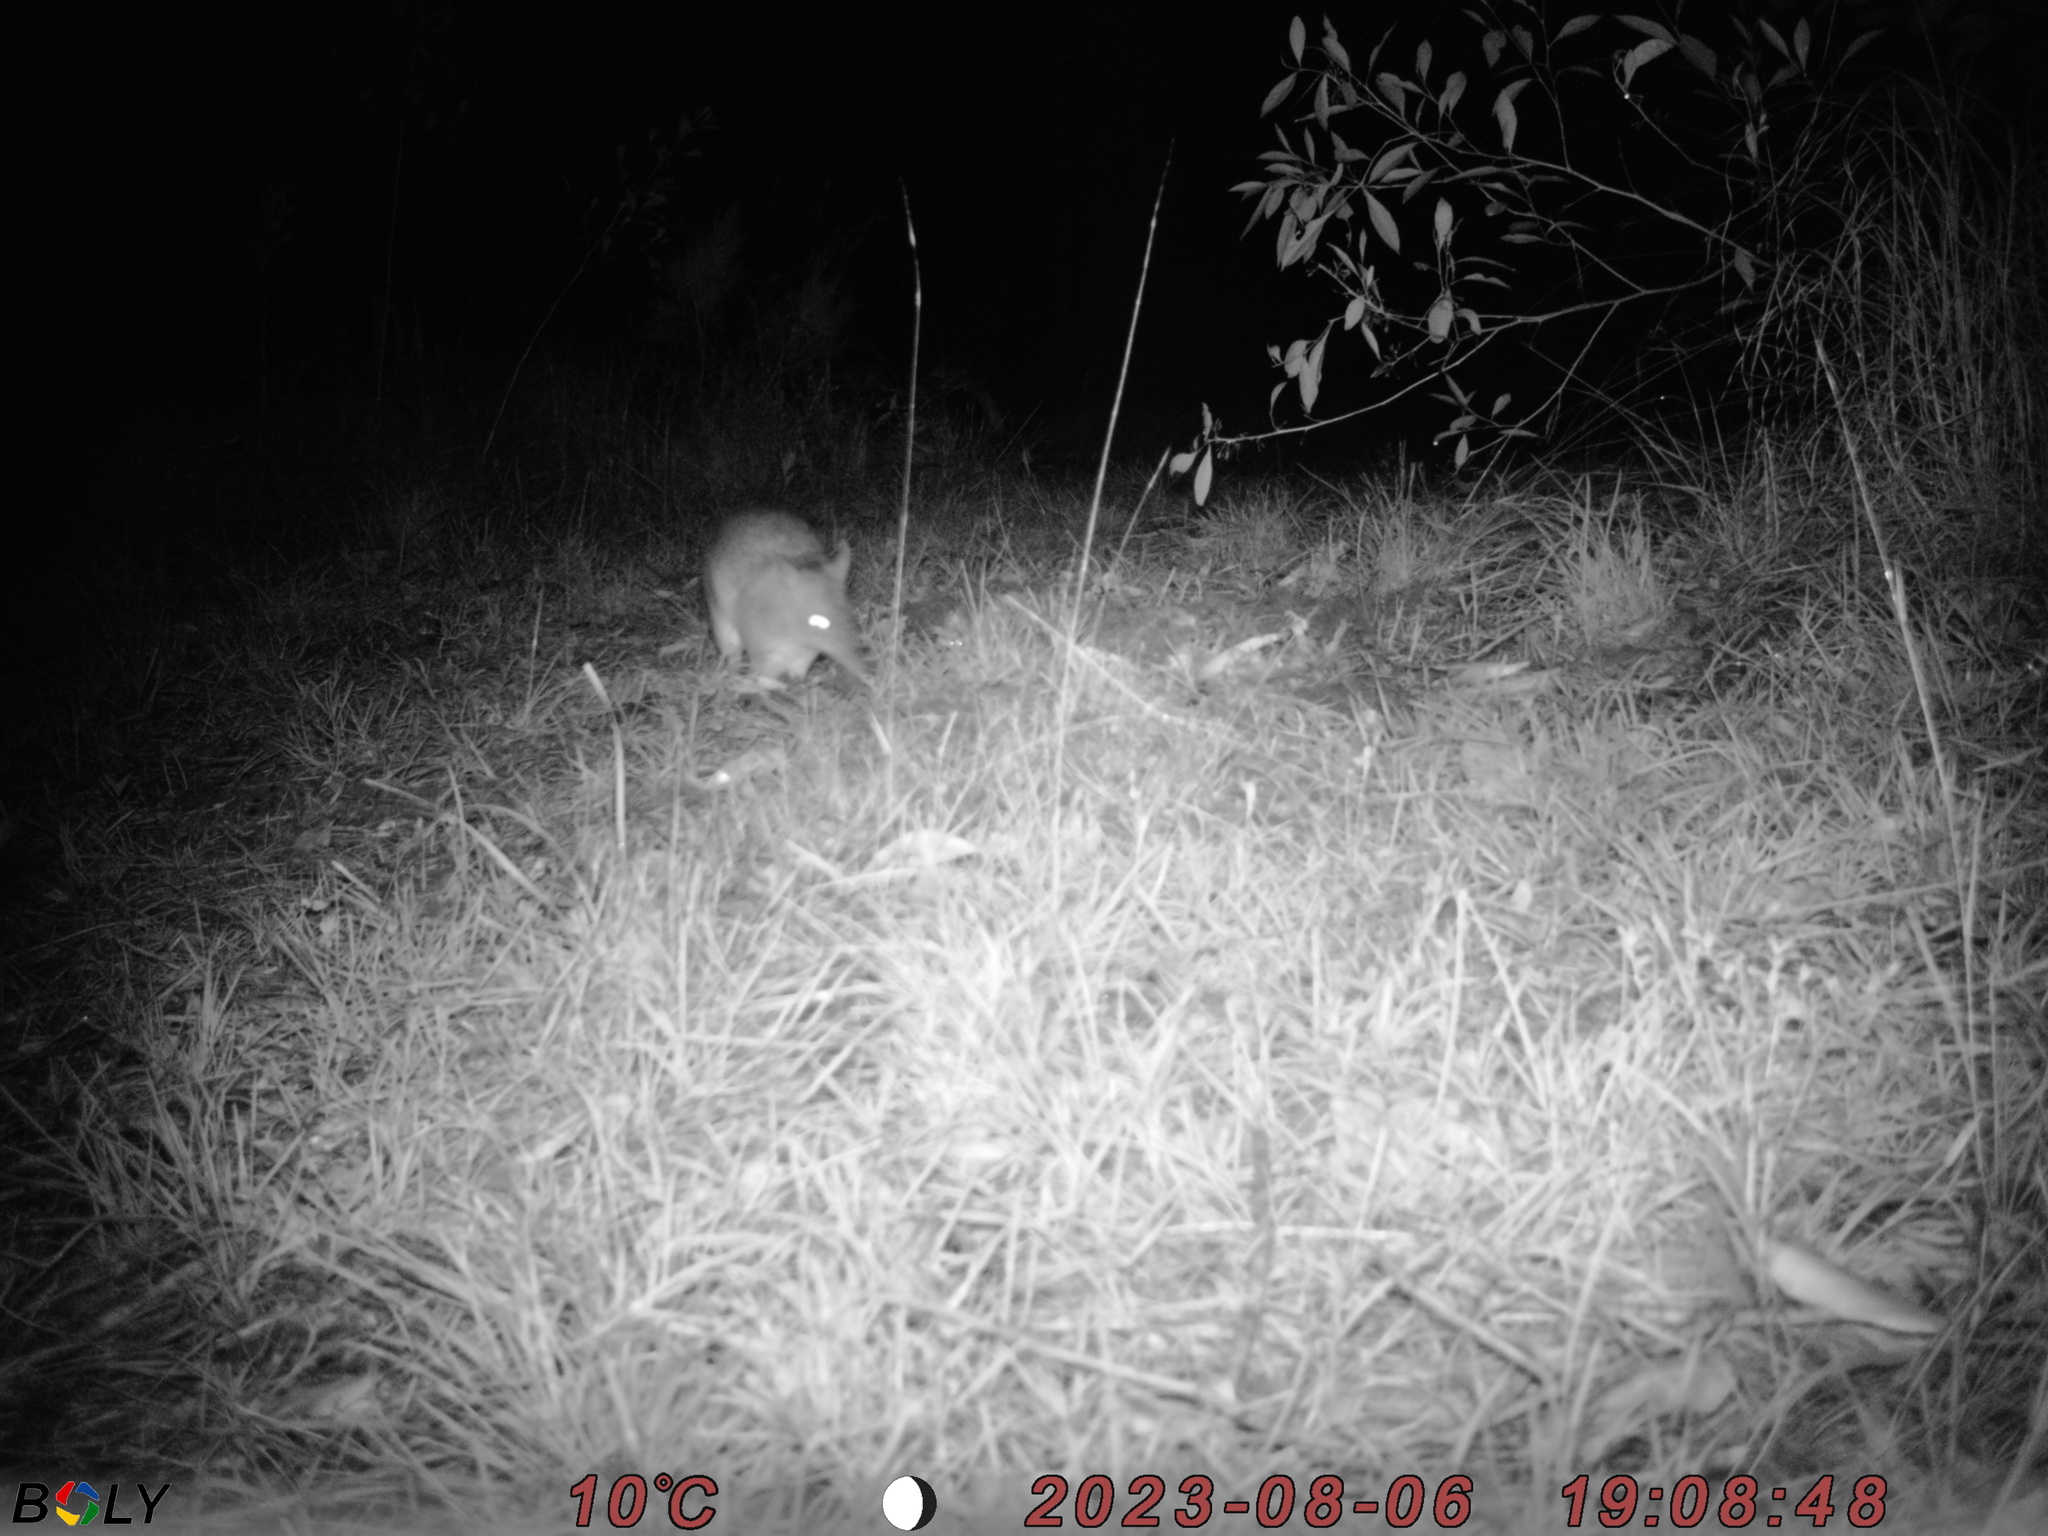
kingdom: Animalia
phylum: Chordata
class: Mammalia
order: Peramelemorphia
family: Peramelidae
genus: Perameles
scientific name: Perameles nasuta
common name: Long-nosed bandicoot
